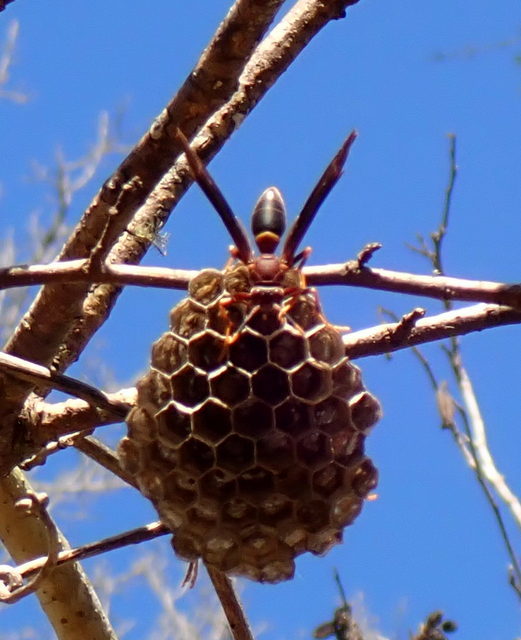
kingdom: Animalia
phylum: Arthropoda
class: Insecta
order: Hymenoptera
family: Eumenidae
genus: Polistes
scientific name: Polistes annularis
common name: Ringed paper wasp
